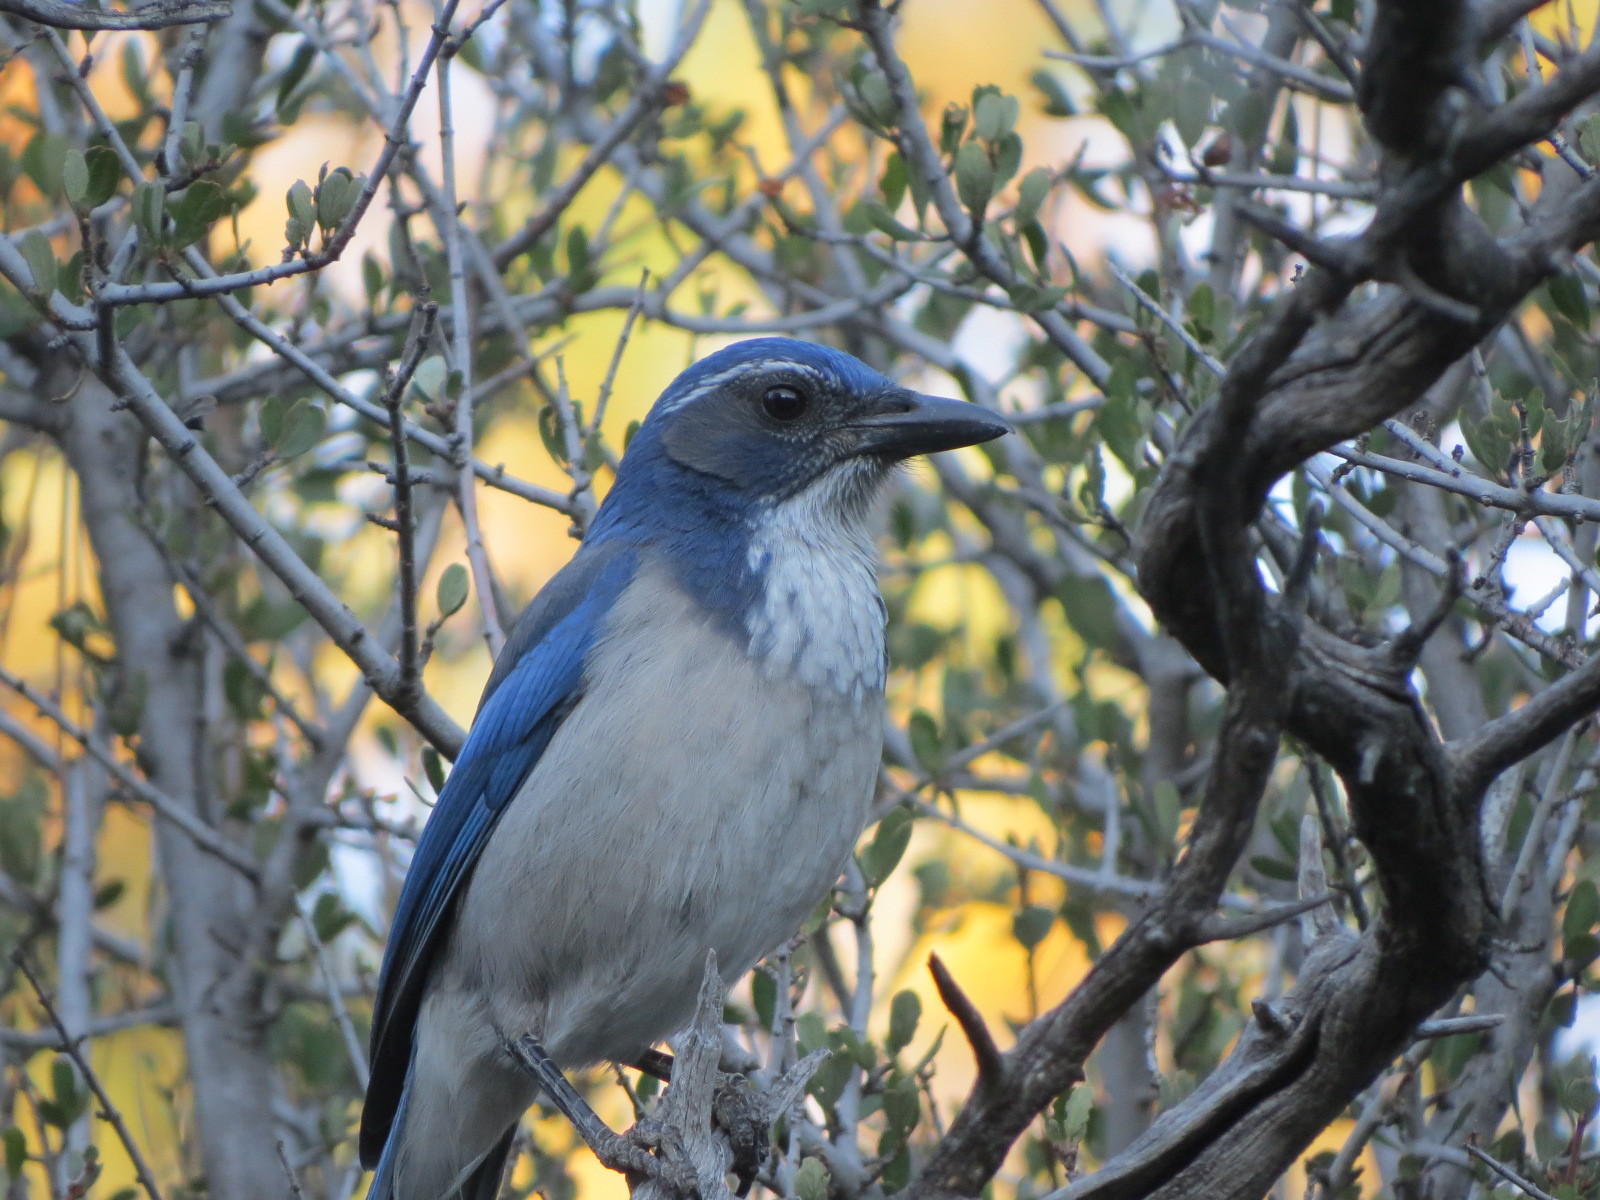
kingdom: Animalia
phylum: Chordata
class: Aves
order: Passeriformes
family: Corvidae
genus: Aphelocoma
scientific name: Aphelocoma californica
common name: California scrub-jay
